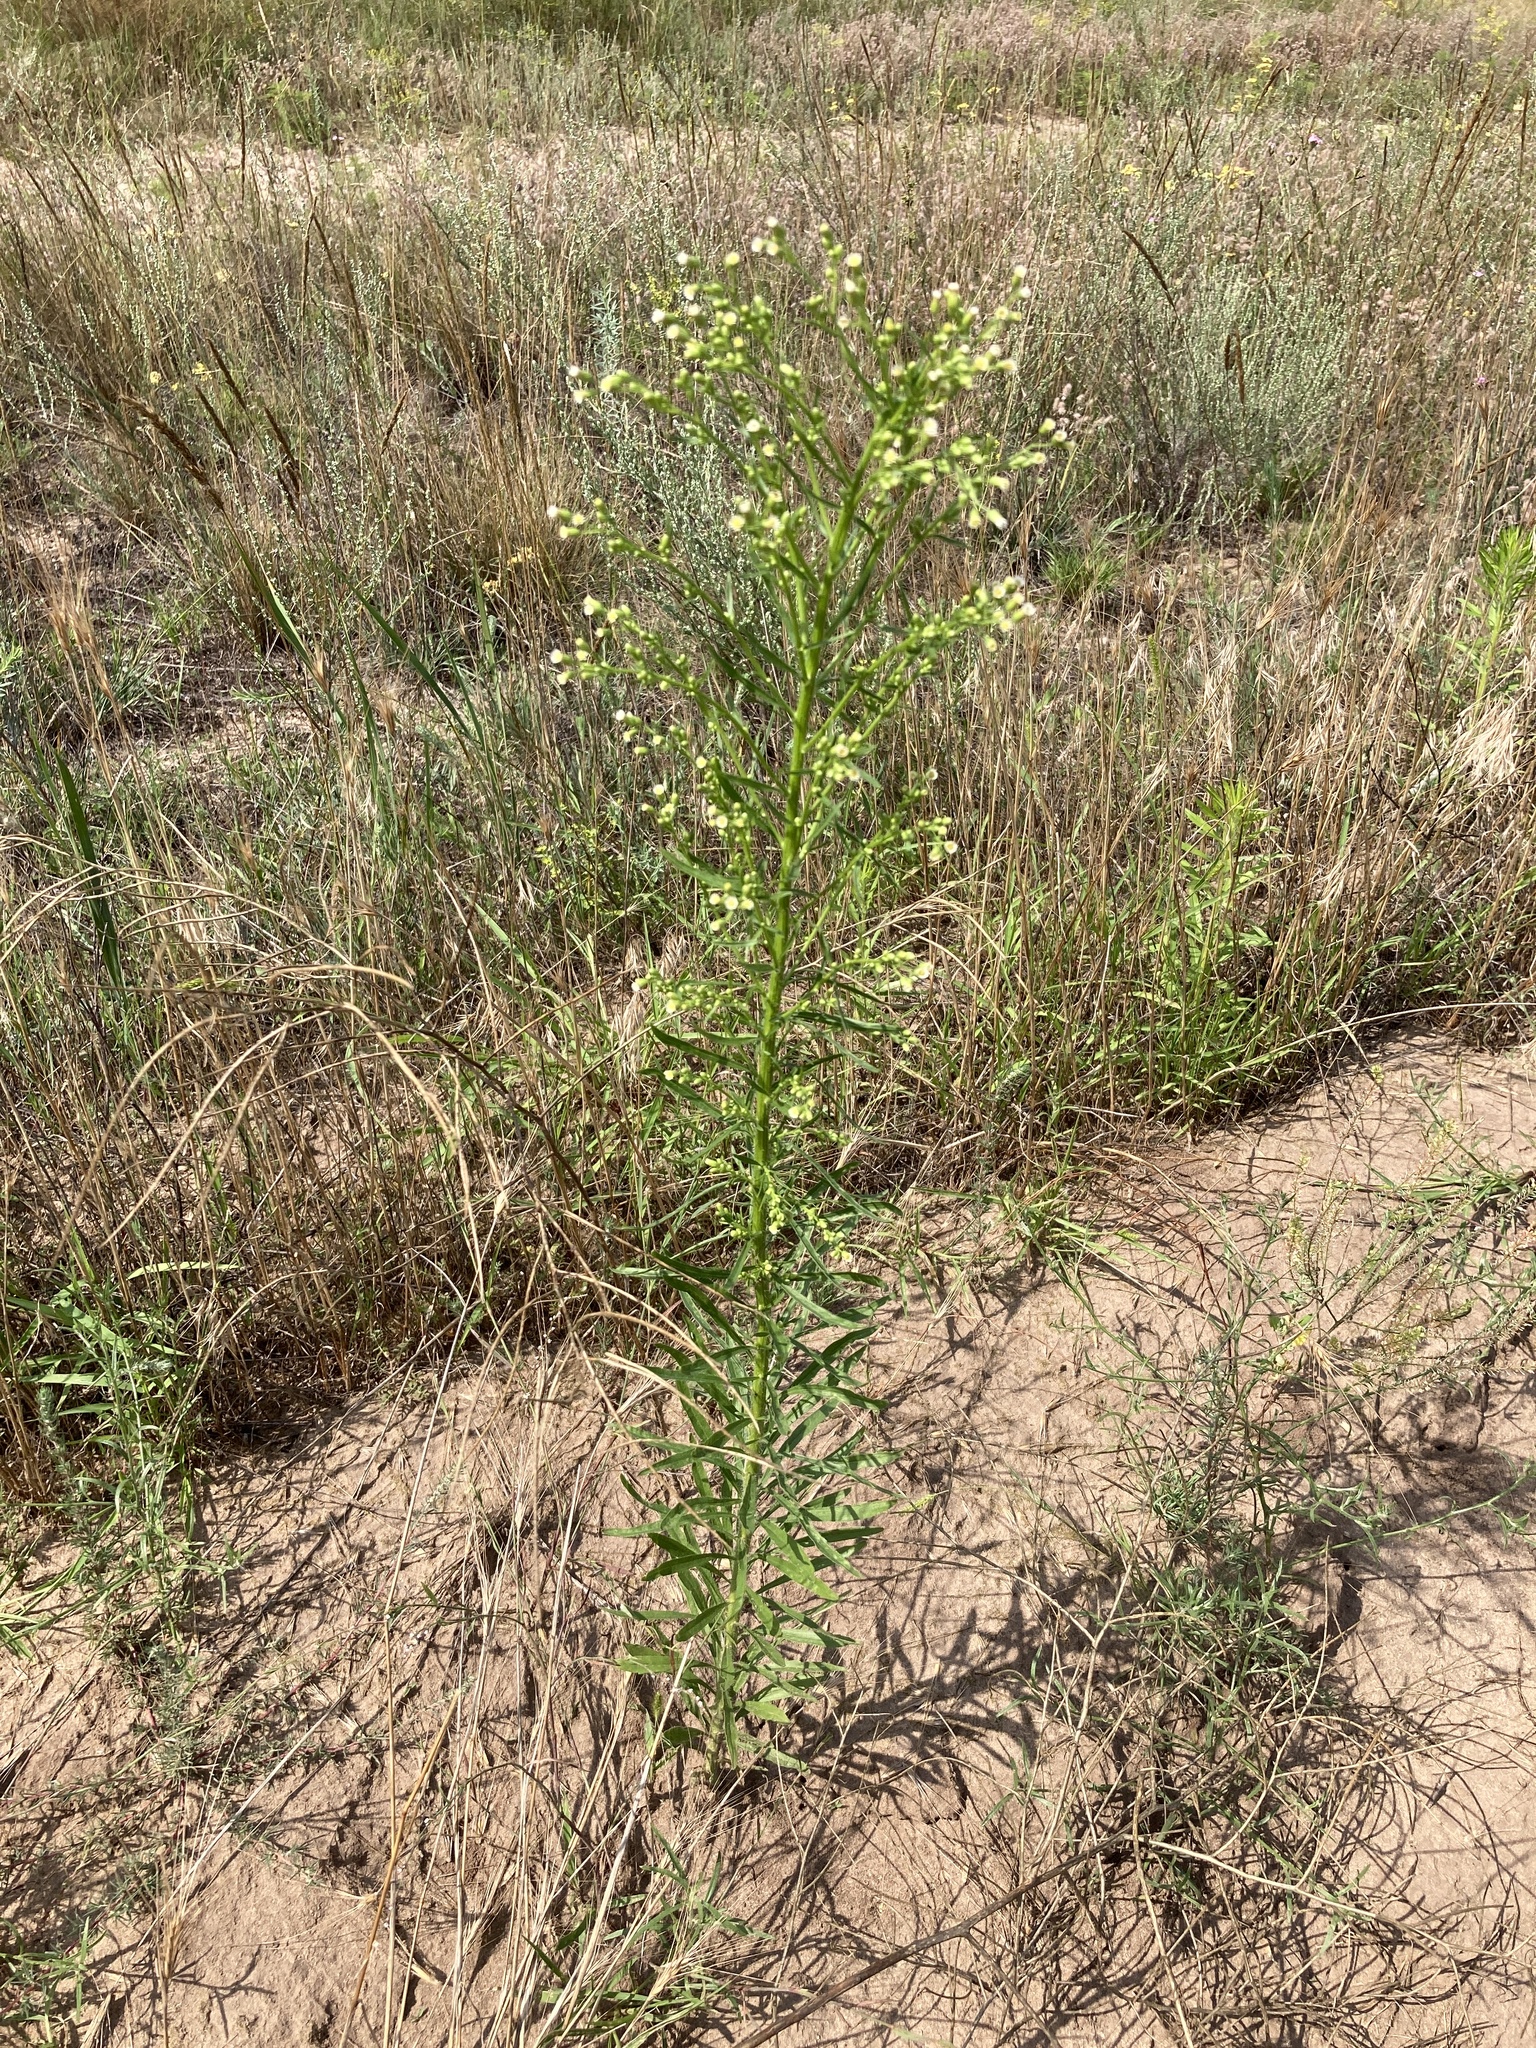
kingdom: Plantae
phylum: Tracheophyta
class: Magnoliopsida
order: Asterales
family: Asteraceae
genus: Erigeron
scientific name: Erigeron canadensis
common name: Canadian fleabane
